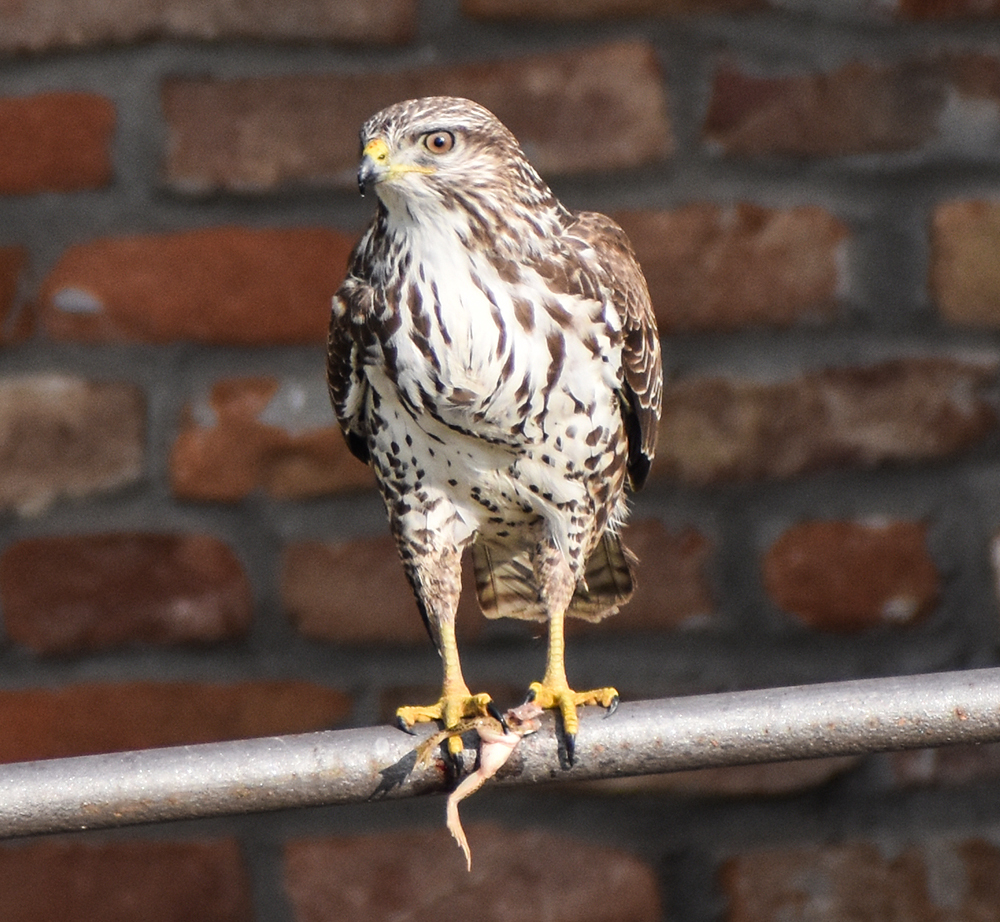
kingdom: Animalia
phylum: Chordata
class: Aves
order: Accipitriformes
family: Accipitridae
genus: Buteo
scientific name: Buteo buteo
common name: Common buzzard
